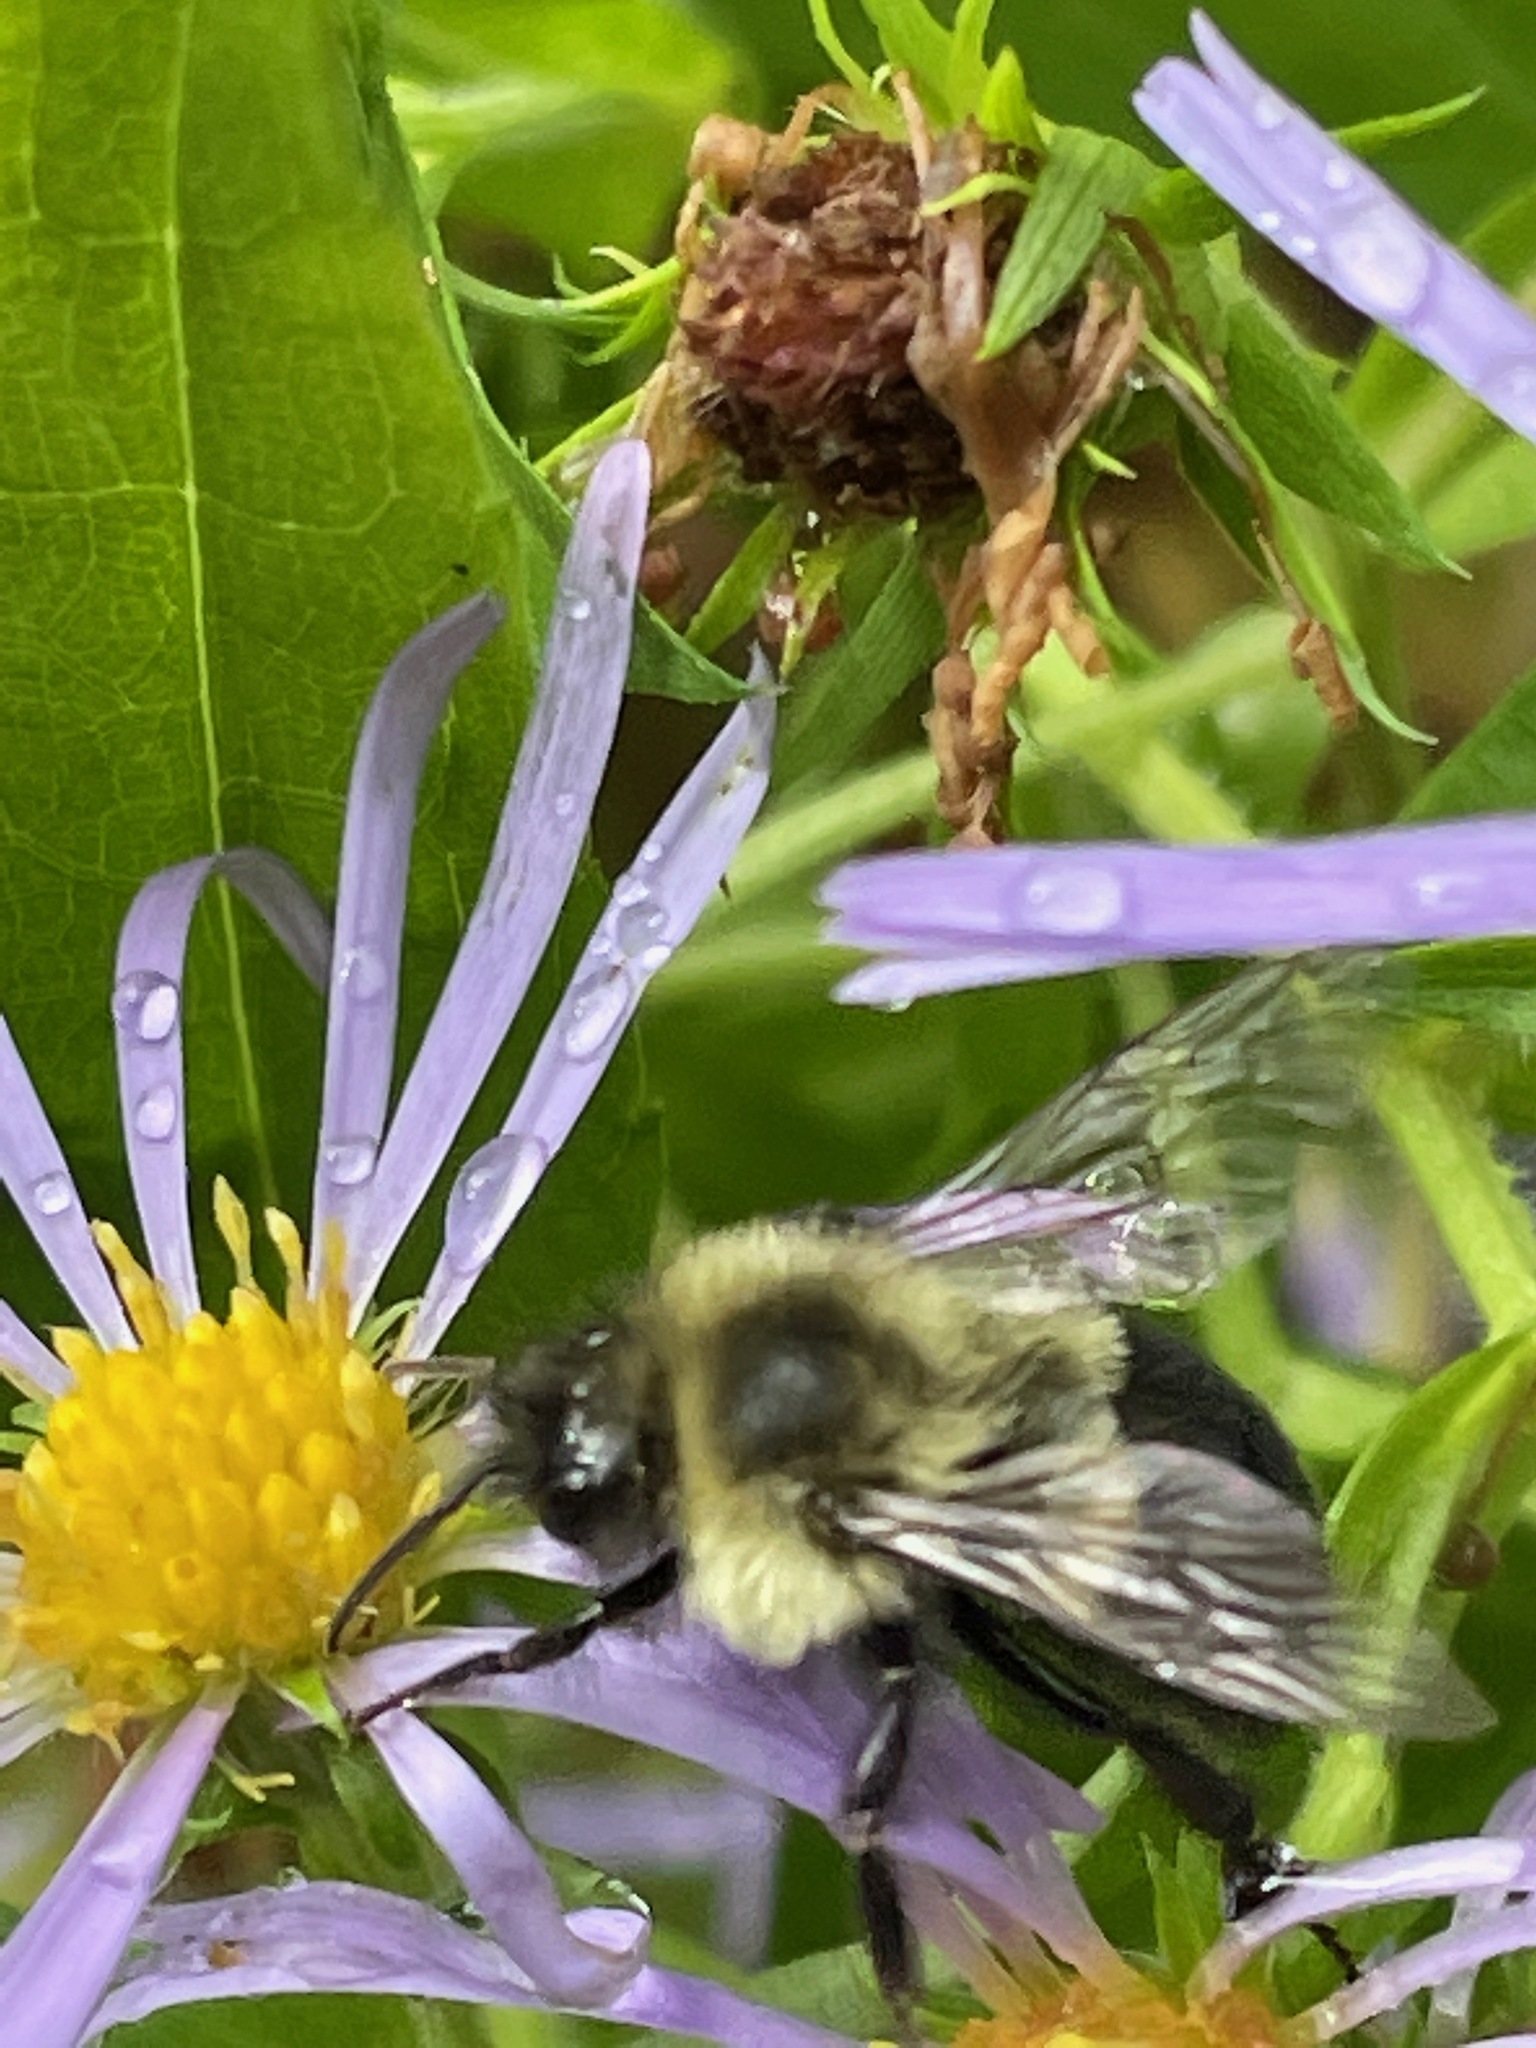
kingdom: Animalia
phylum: Arthropoda
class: Insecta
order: Hymenoptera
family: Apidae
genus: Bombus
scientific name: Bombus impatiens
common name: Common eastern bumble bee
